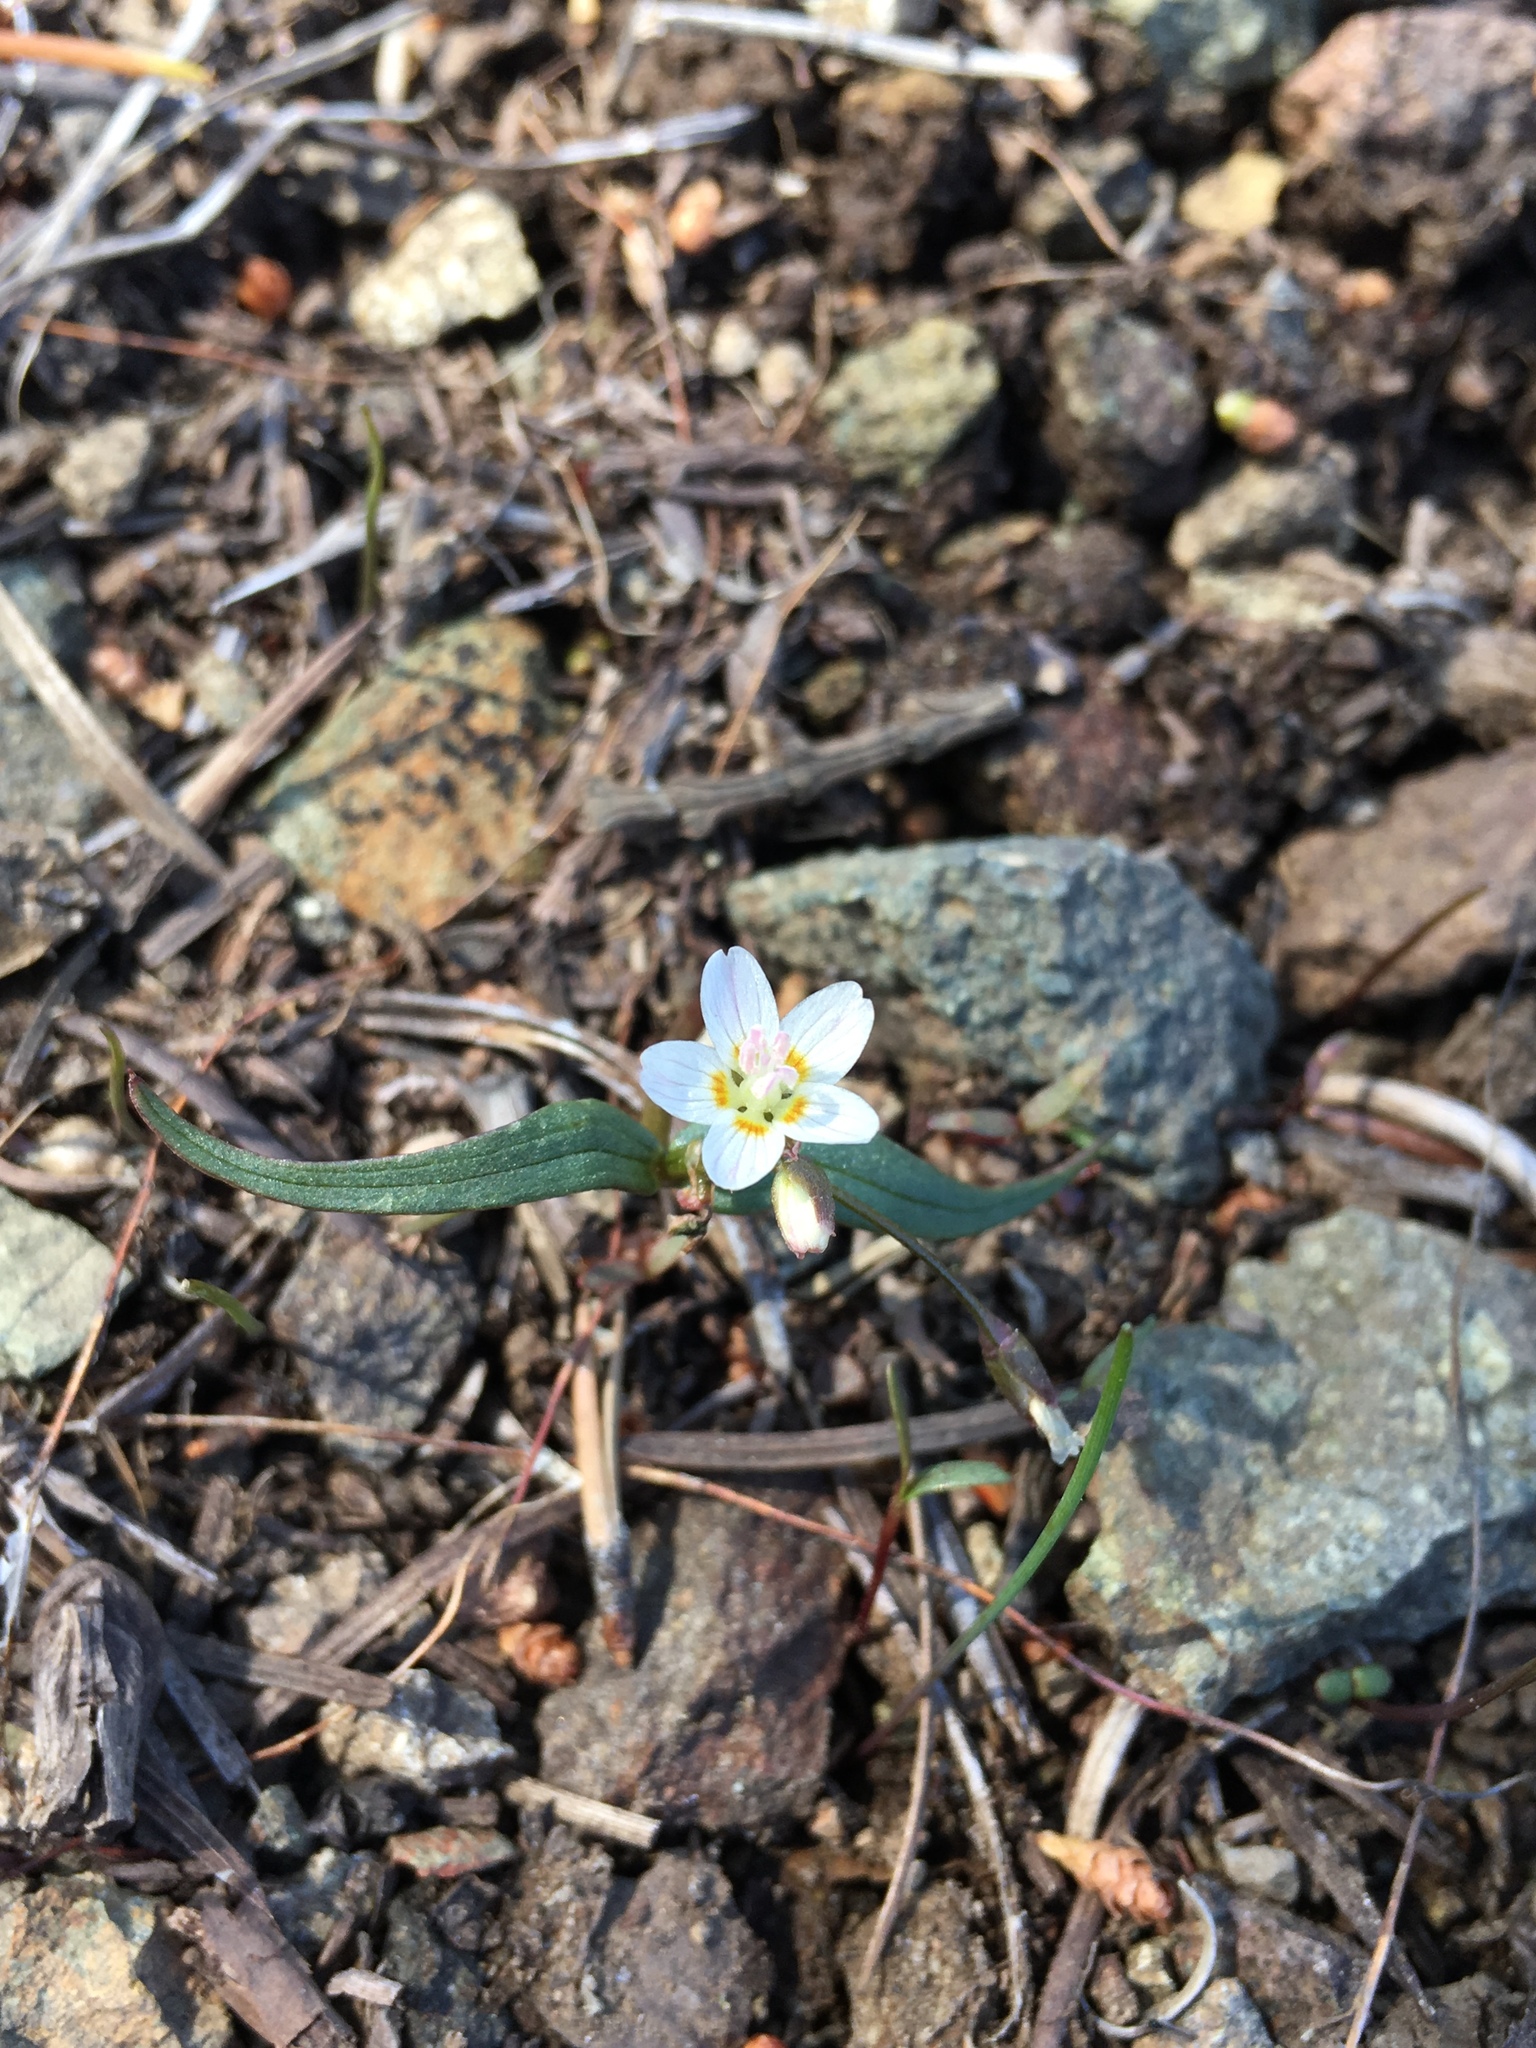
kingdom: Plantae
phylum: Tracheophyta
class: Magnoliopsida
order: Caryophyllales
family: Montiaceae
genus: Claytonia
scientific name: Claytonia lanceolata
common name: Western spring-beauty
